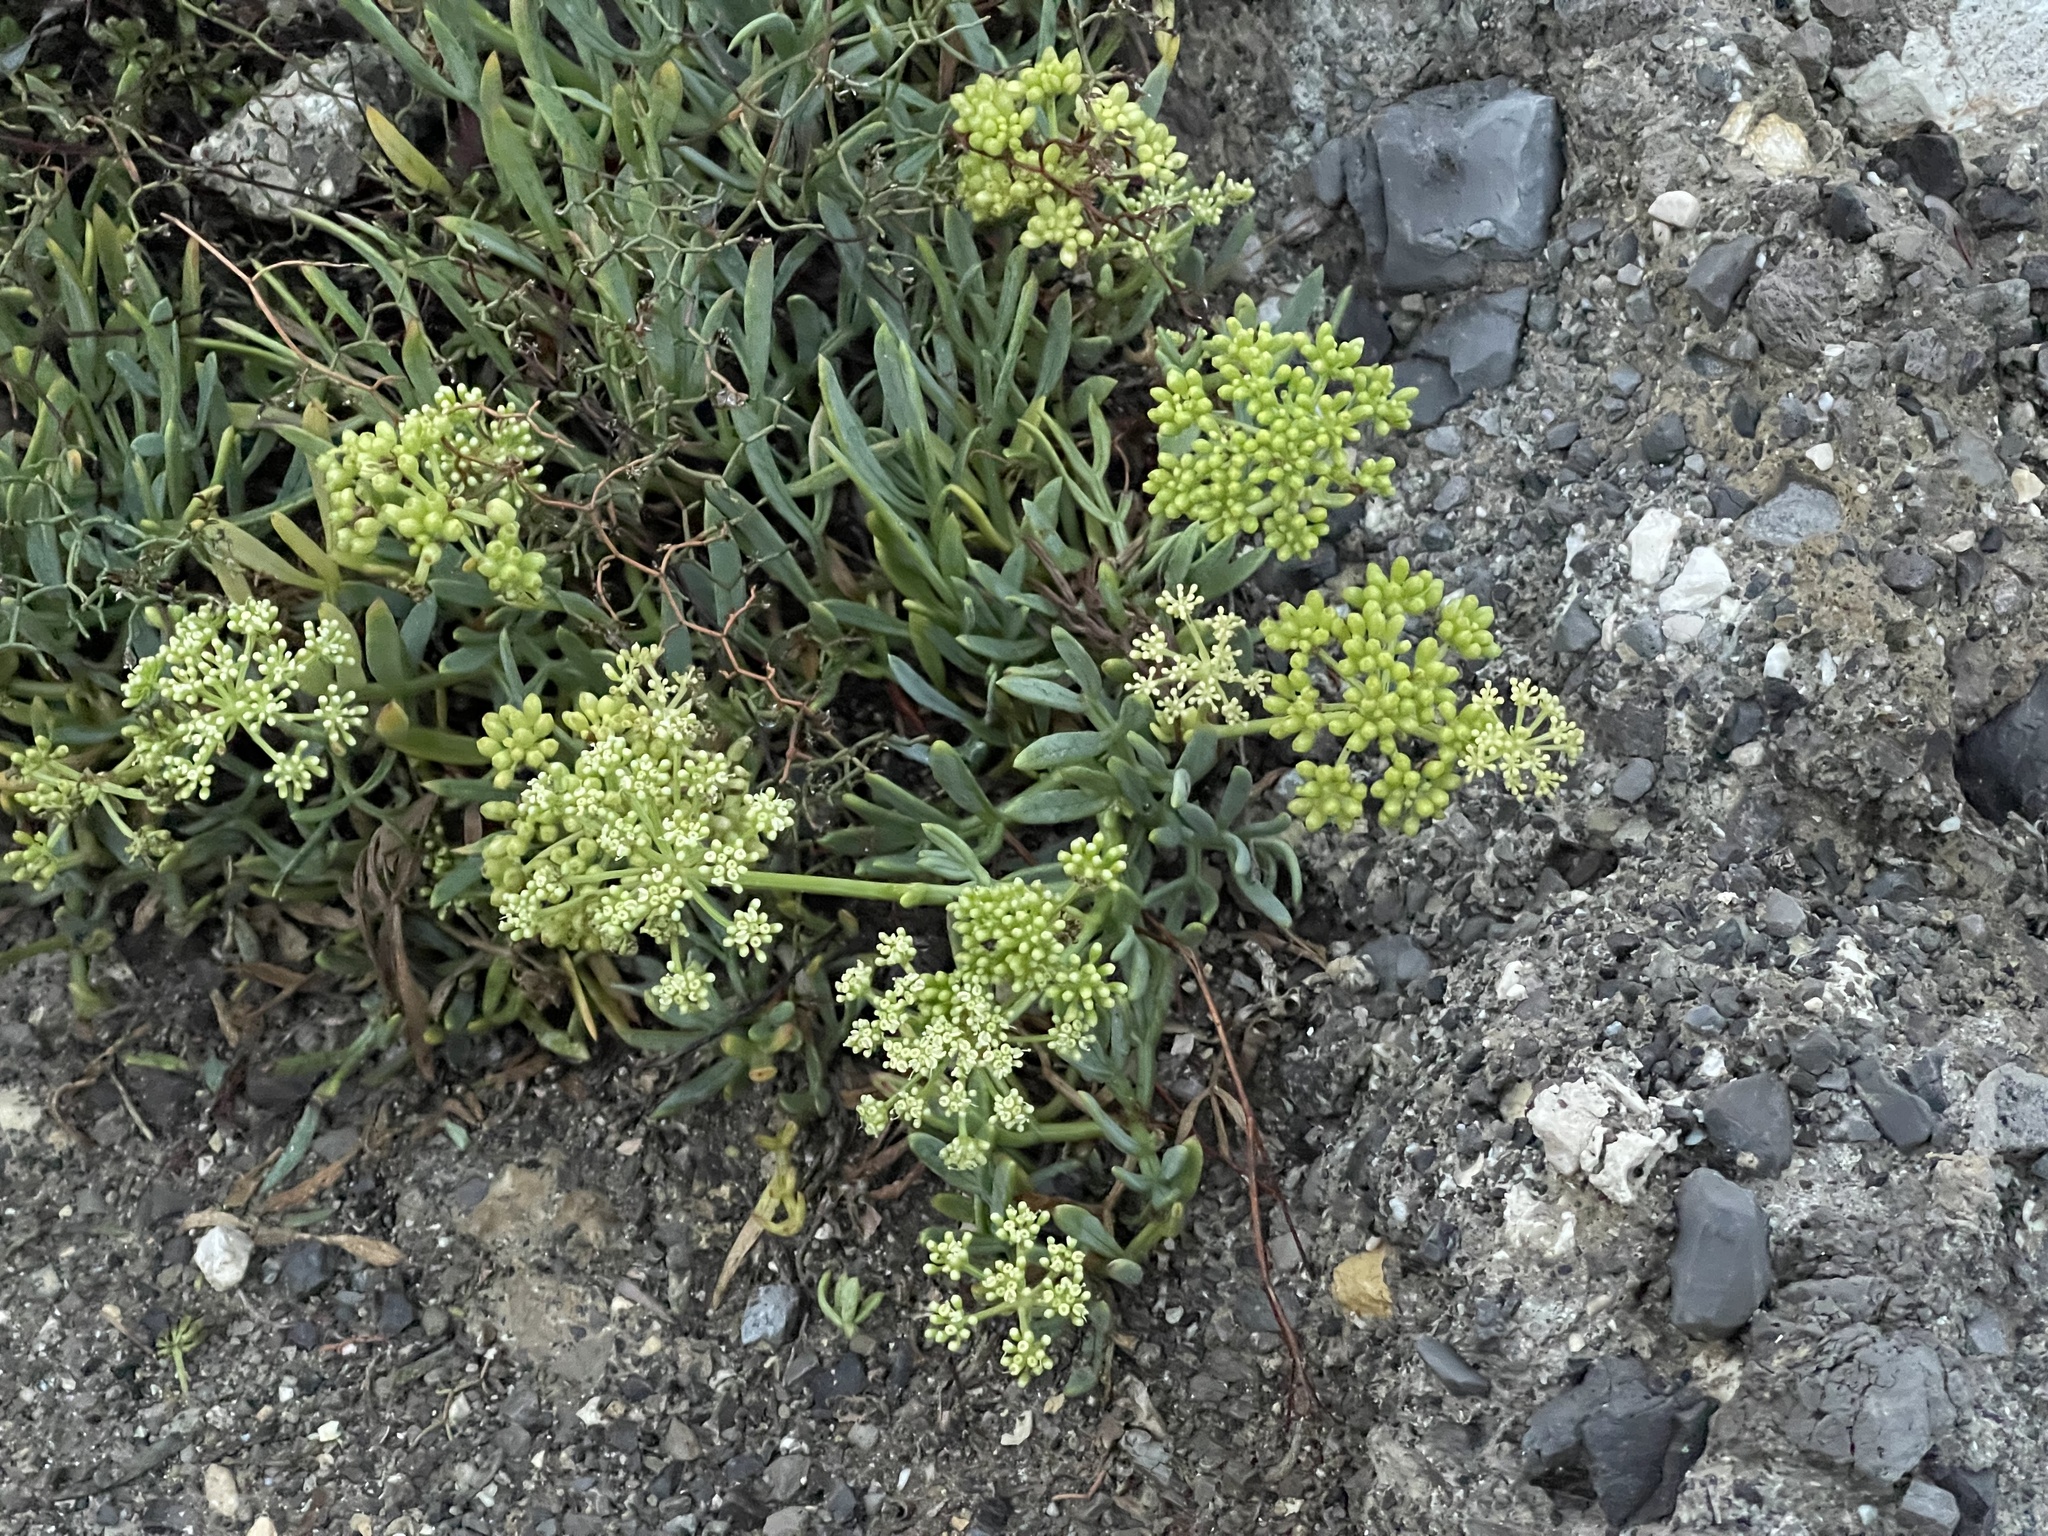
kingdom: Plantae
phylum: Tracheophyta
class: Magnoliopsida
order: Apiales
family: Apiaceae
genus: Crithmum
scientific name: Crithmum maritimum
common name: Rock samphire
